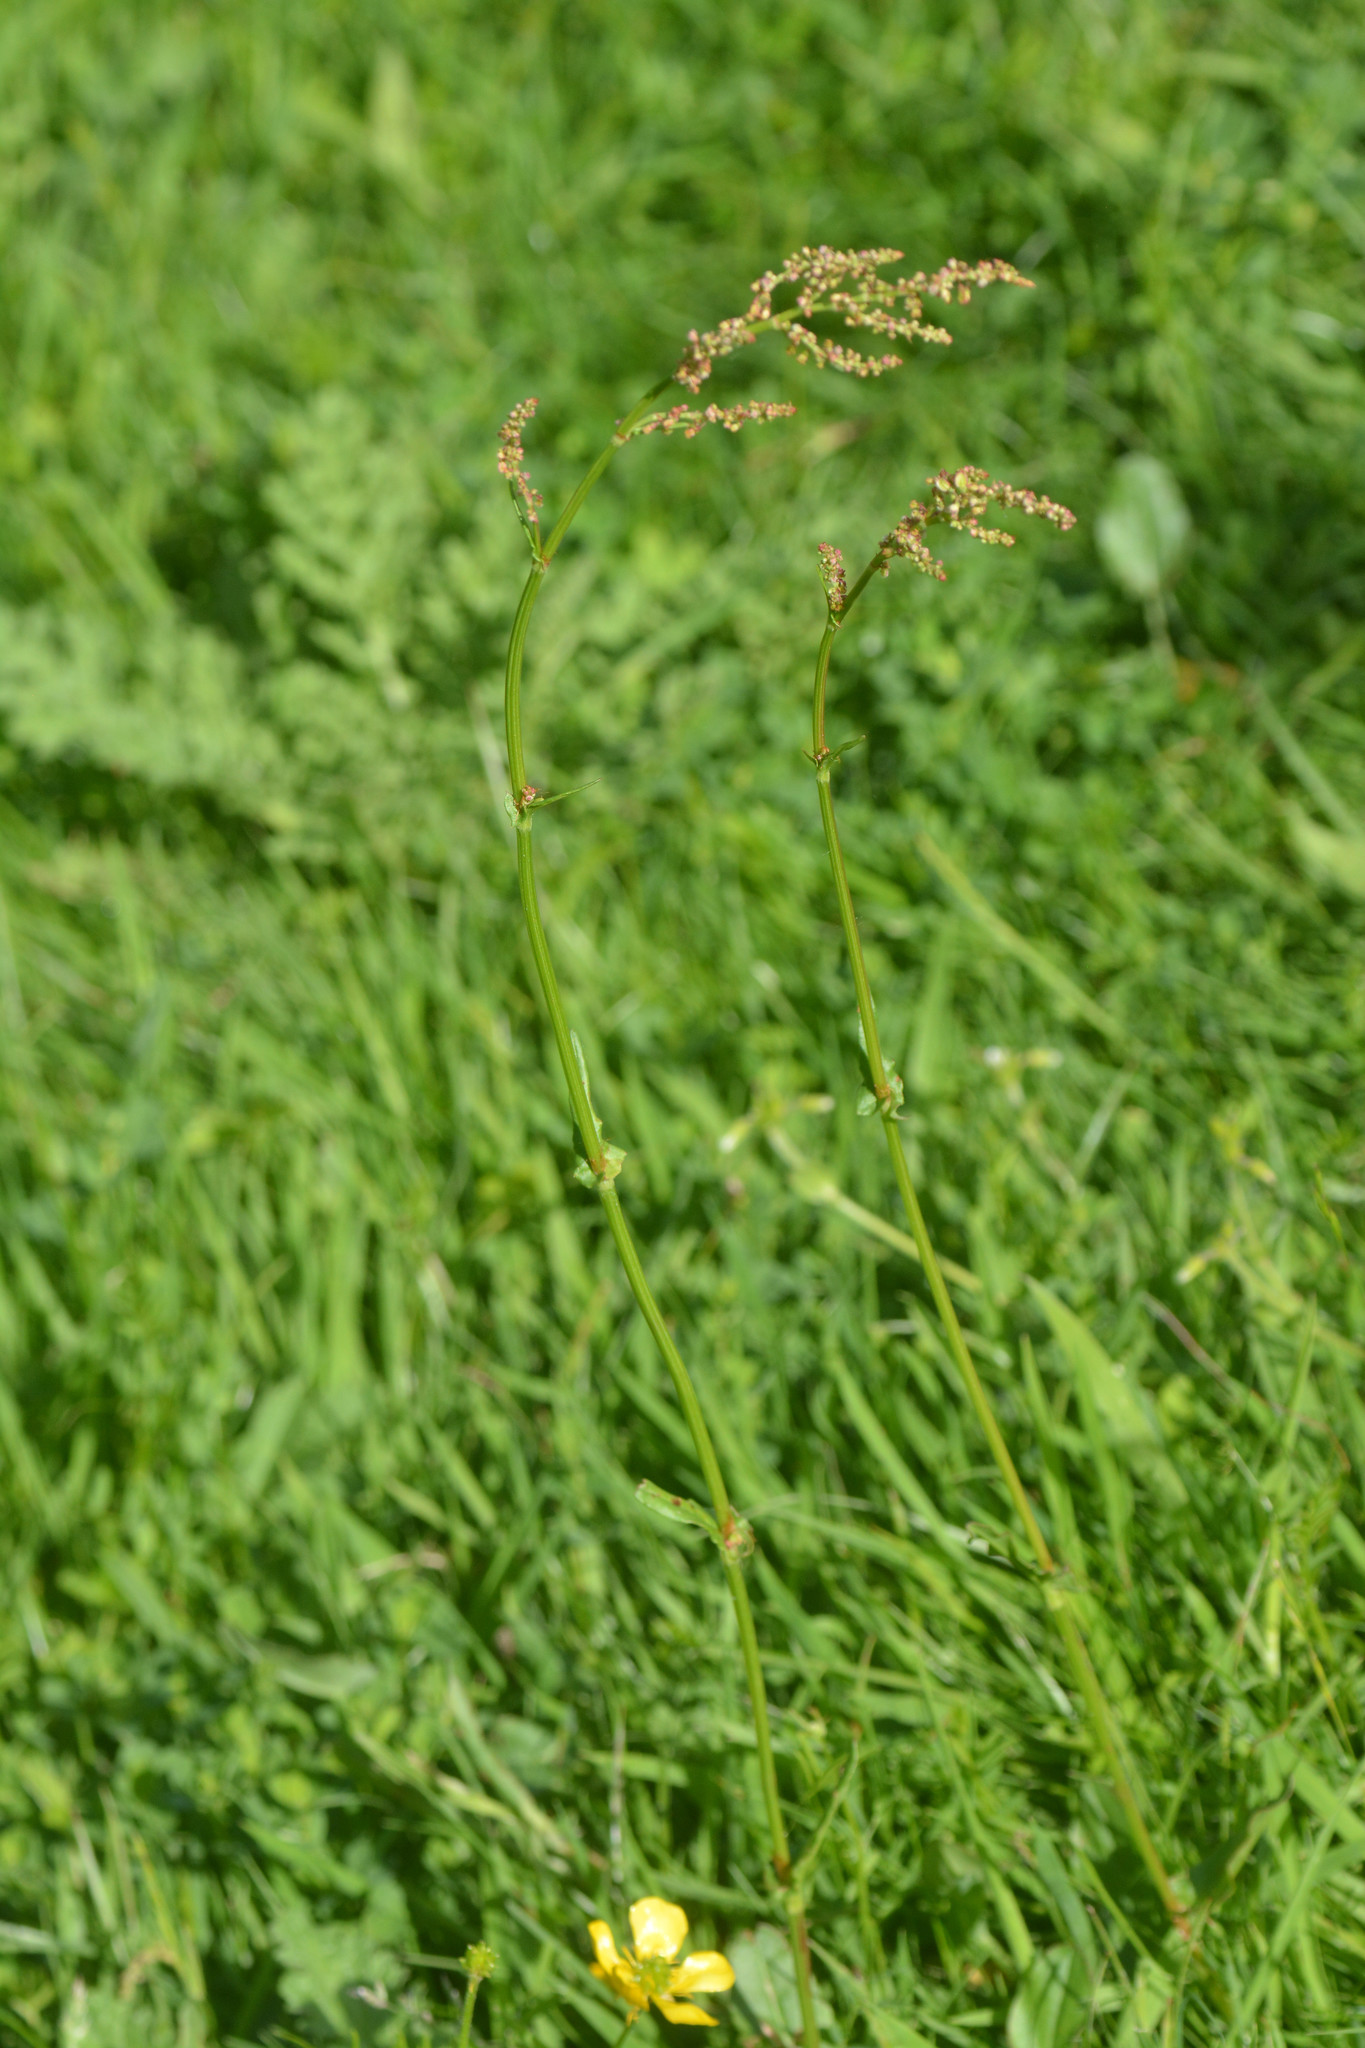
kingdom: Plantae
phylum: Tracheophyta
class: Magnoliopsida
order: Caryophyllales
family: Polygonaceae
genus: Rumex
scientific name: Rumex acetosa
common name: Garden sorrel
